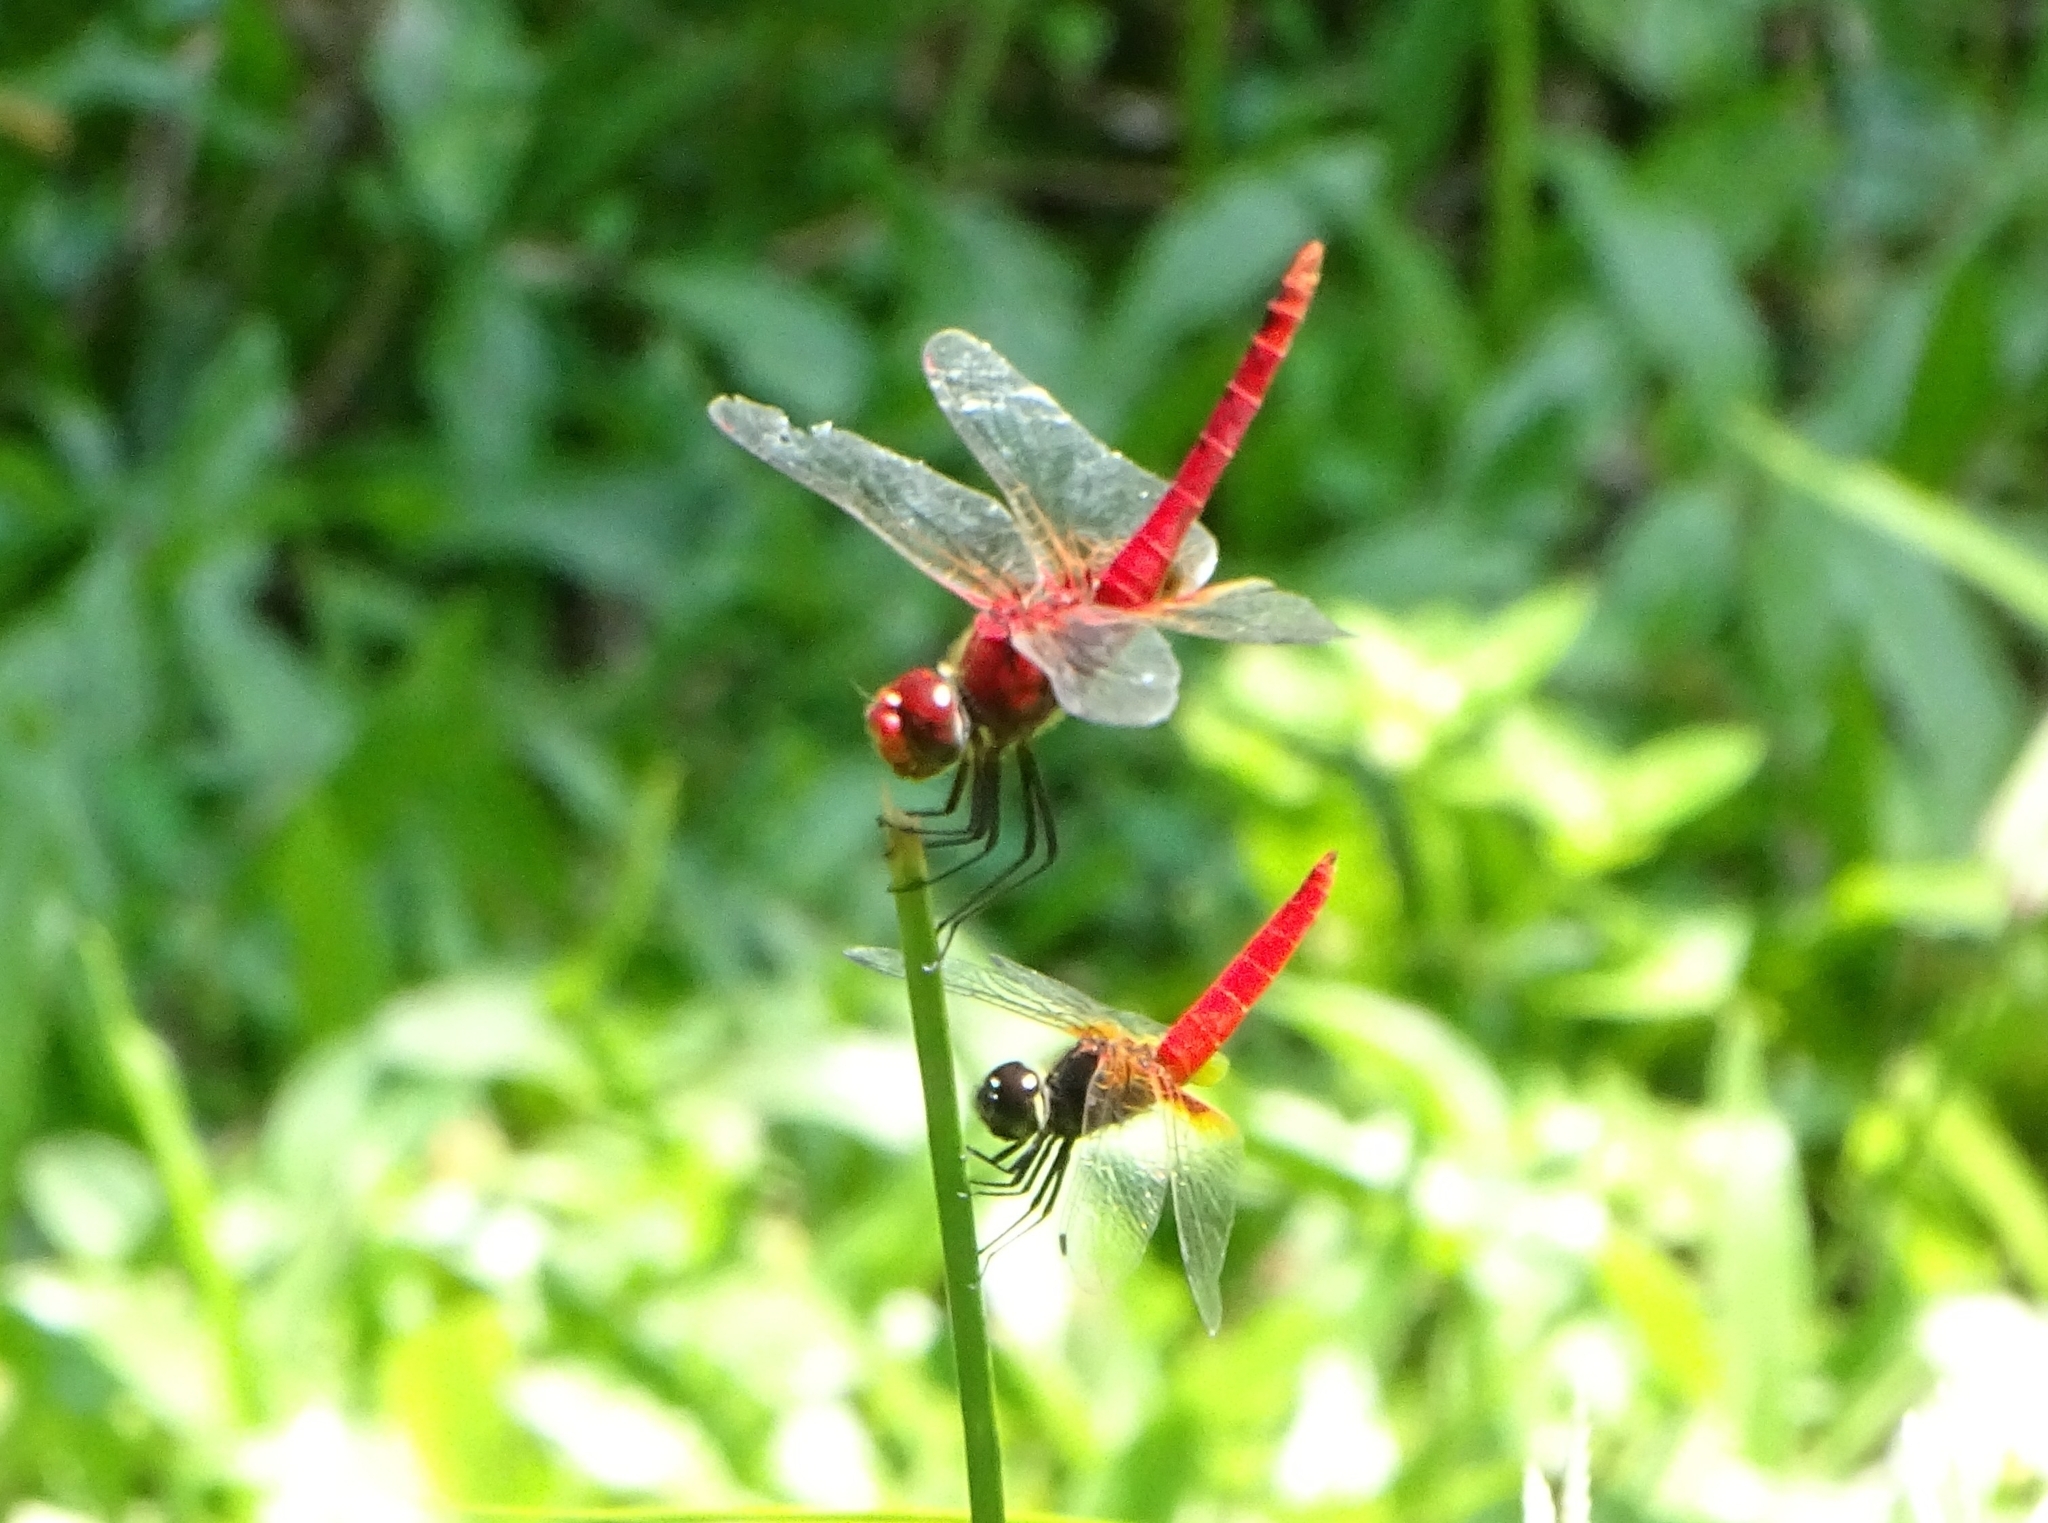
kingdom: Animalia
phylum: Arthropoda
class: Insecta
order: Odonata
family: Libellulidae
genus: Aethriamanta
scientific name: Aethriamanta brevipennis
